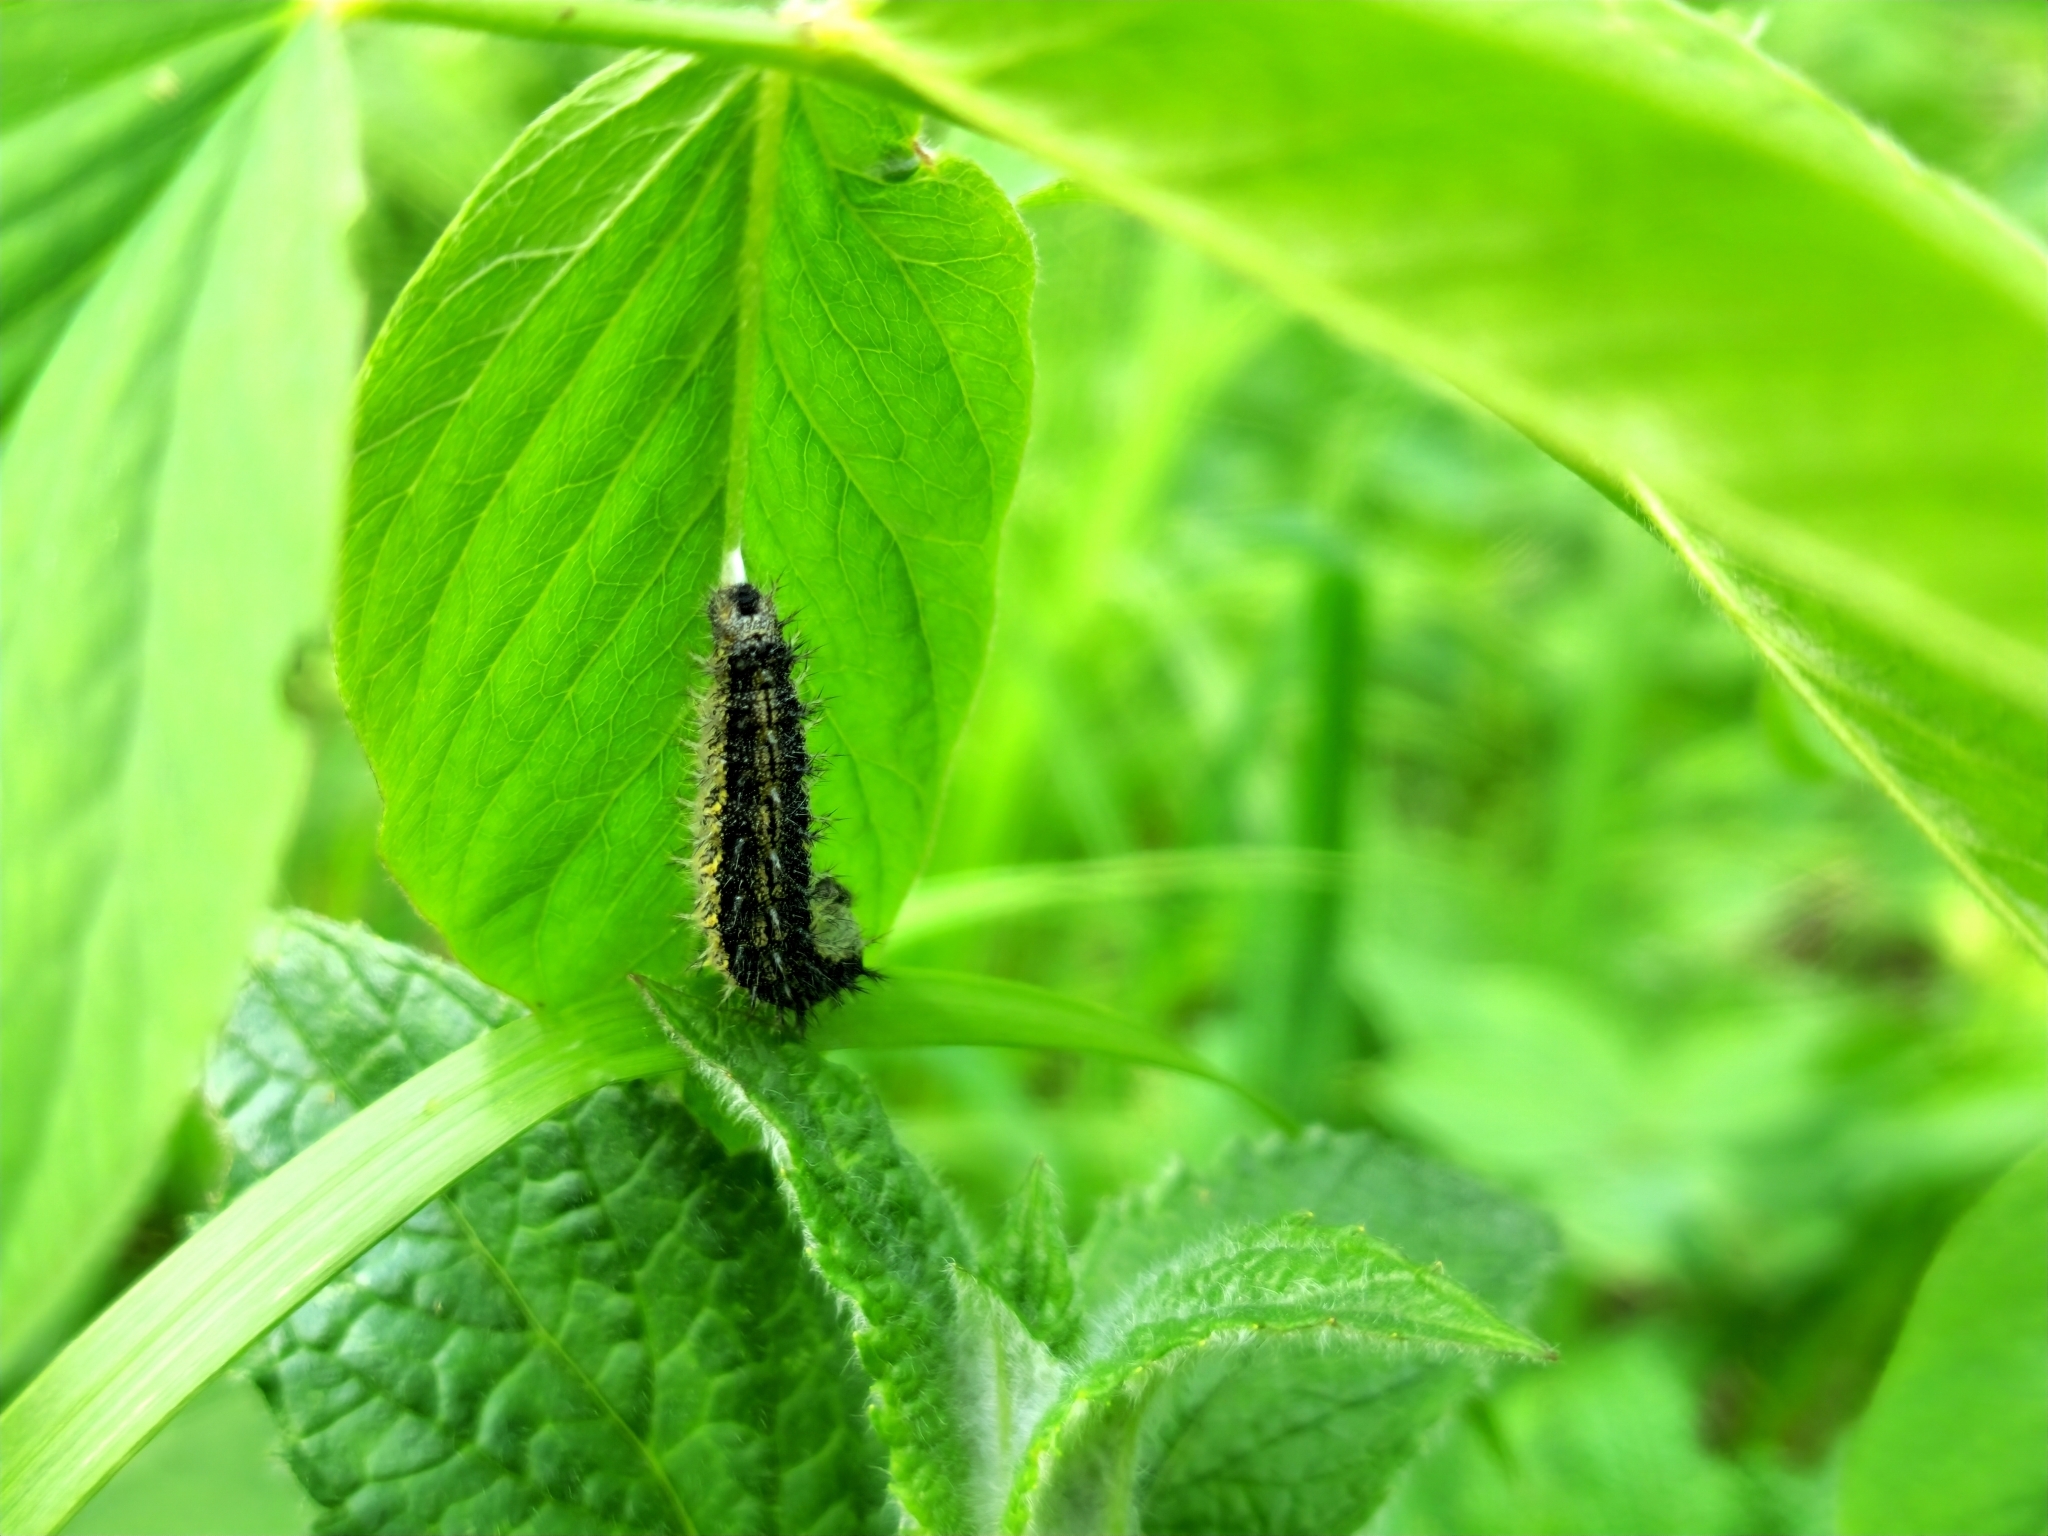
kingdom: Animalia
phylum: Arthropoda
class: Insecta
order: Lepidoptera
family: Nymphalidae
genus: Aglais
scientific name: Aglais urticae
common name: Small tortoiseshell
